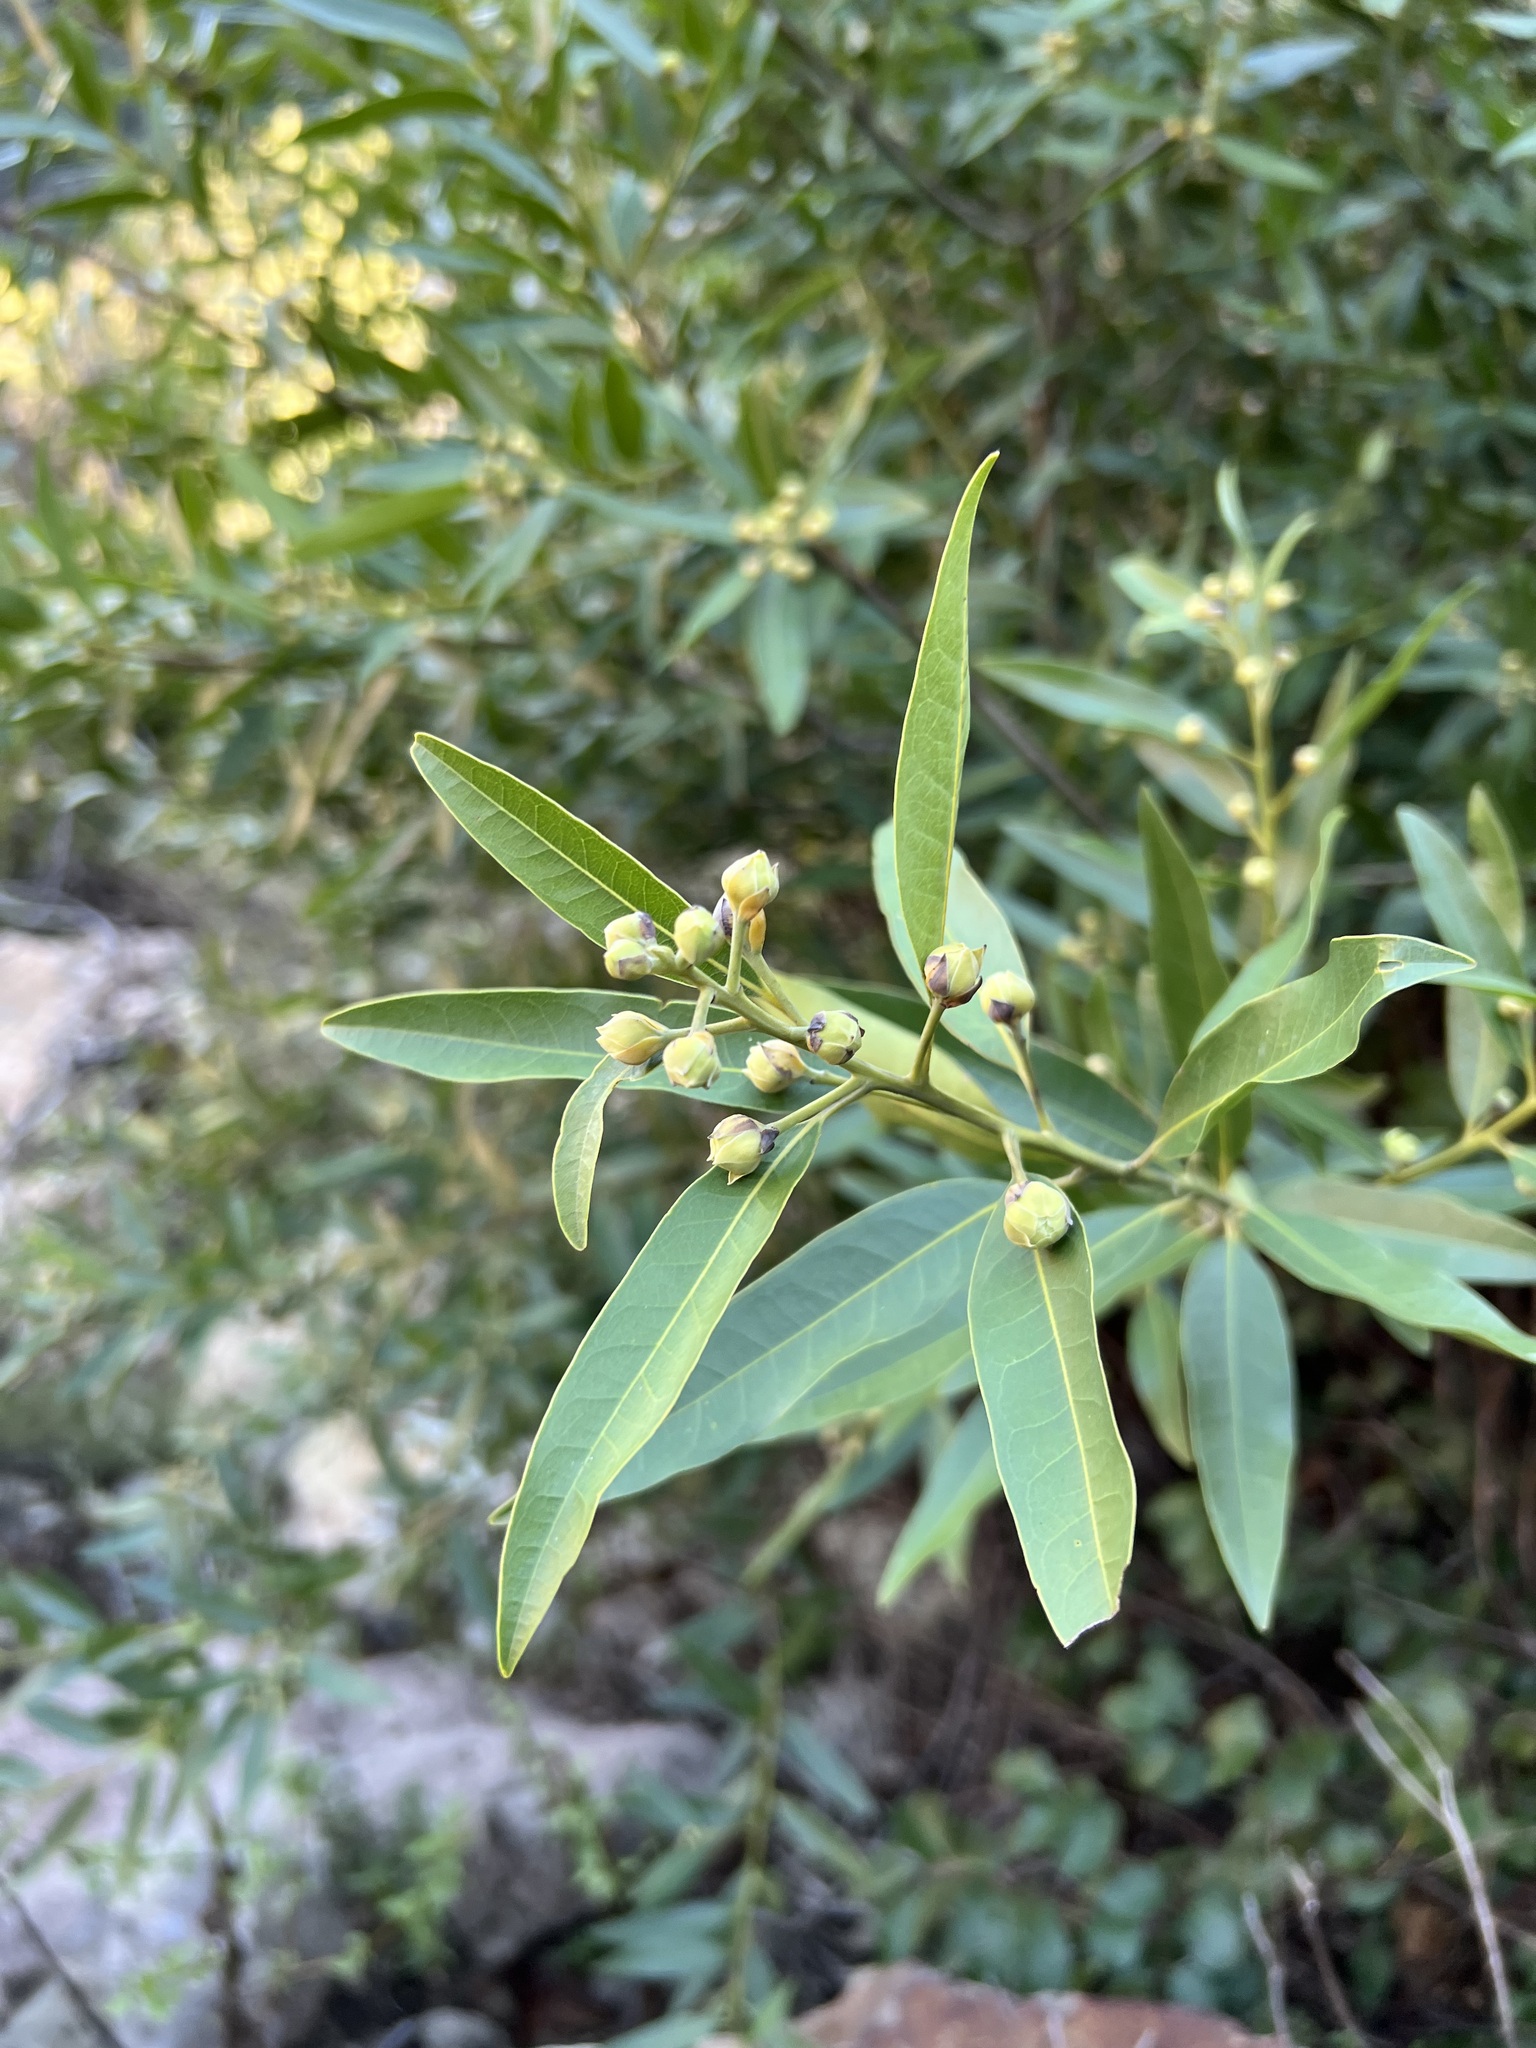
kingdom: Plantae
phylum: Tracheophyta
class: Magnoliopsida
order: Laurales
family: Lauraceae
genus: Umbellularia
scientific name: Umbellularia californica
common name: California bay
